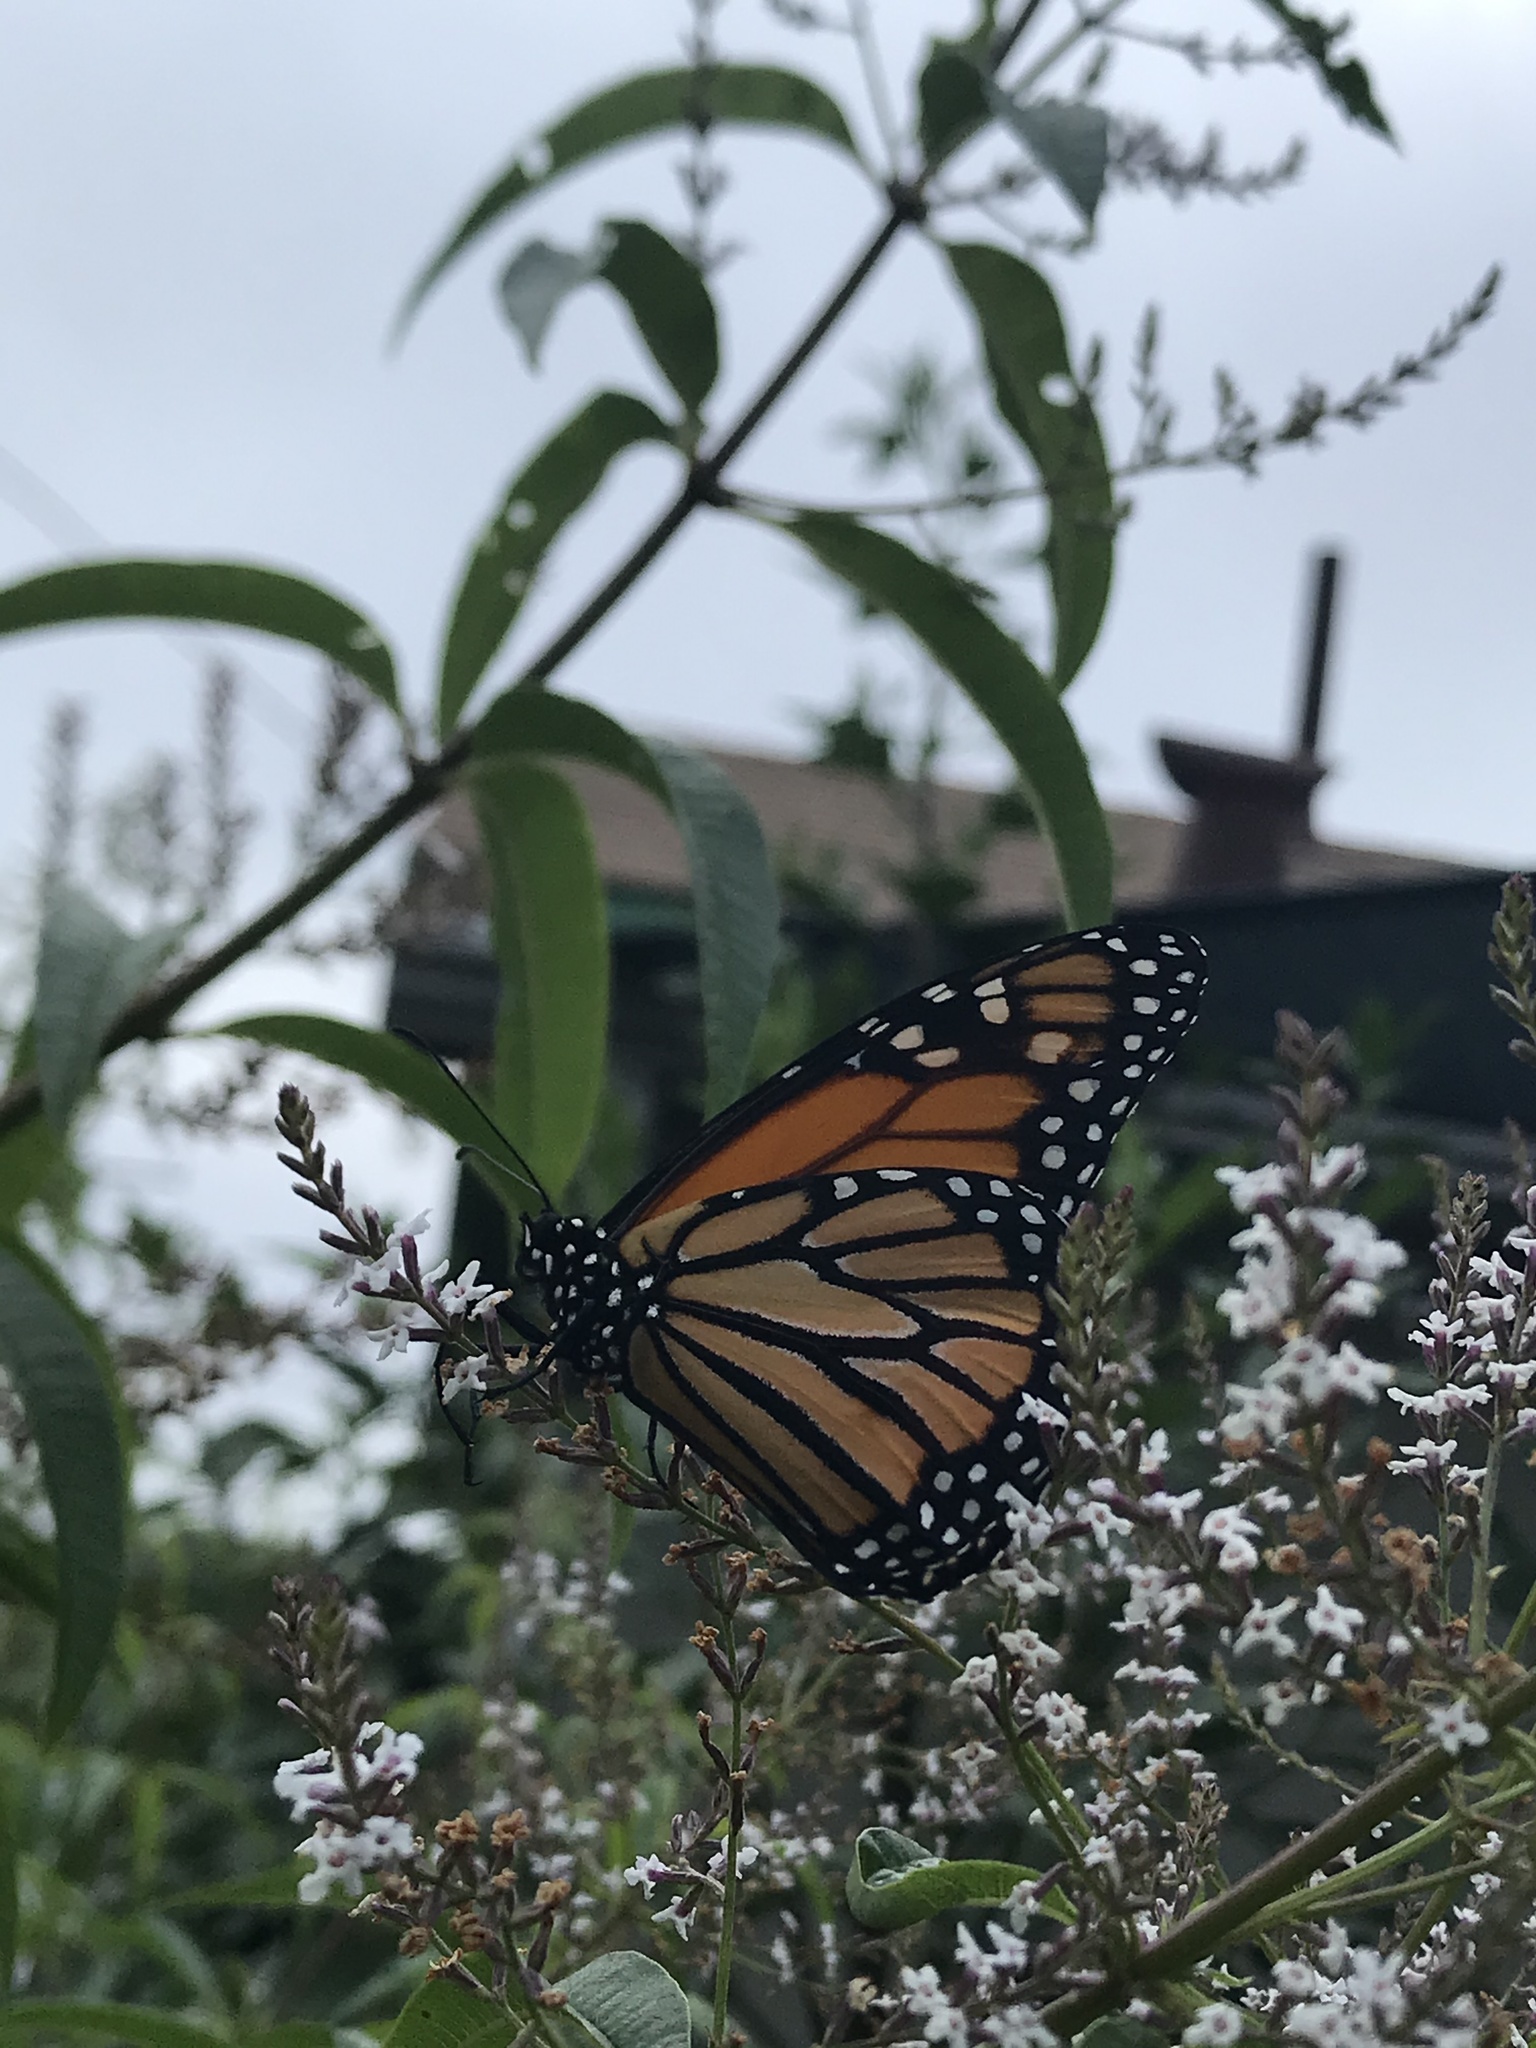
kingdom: Animalia
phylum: Arthropoda
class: Insecta
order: Lepidoptera
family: Nymphalidae
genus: Danaus
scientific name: Danaus plexippus
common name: Monarch
